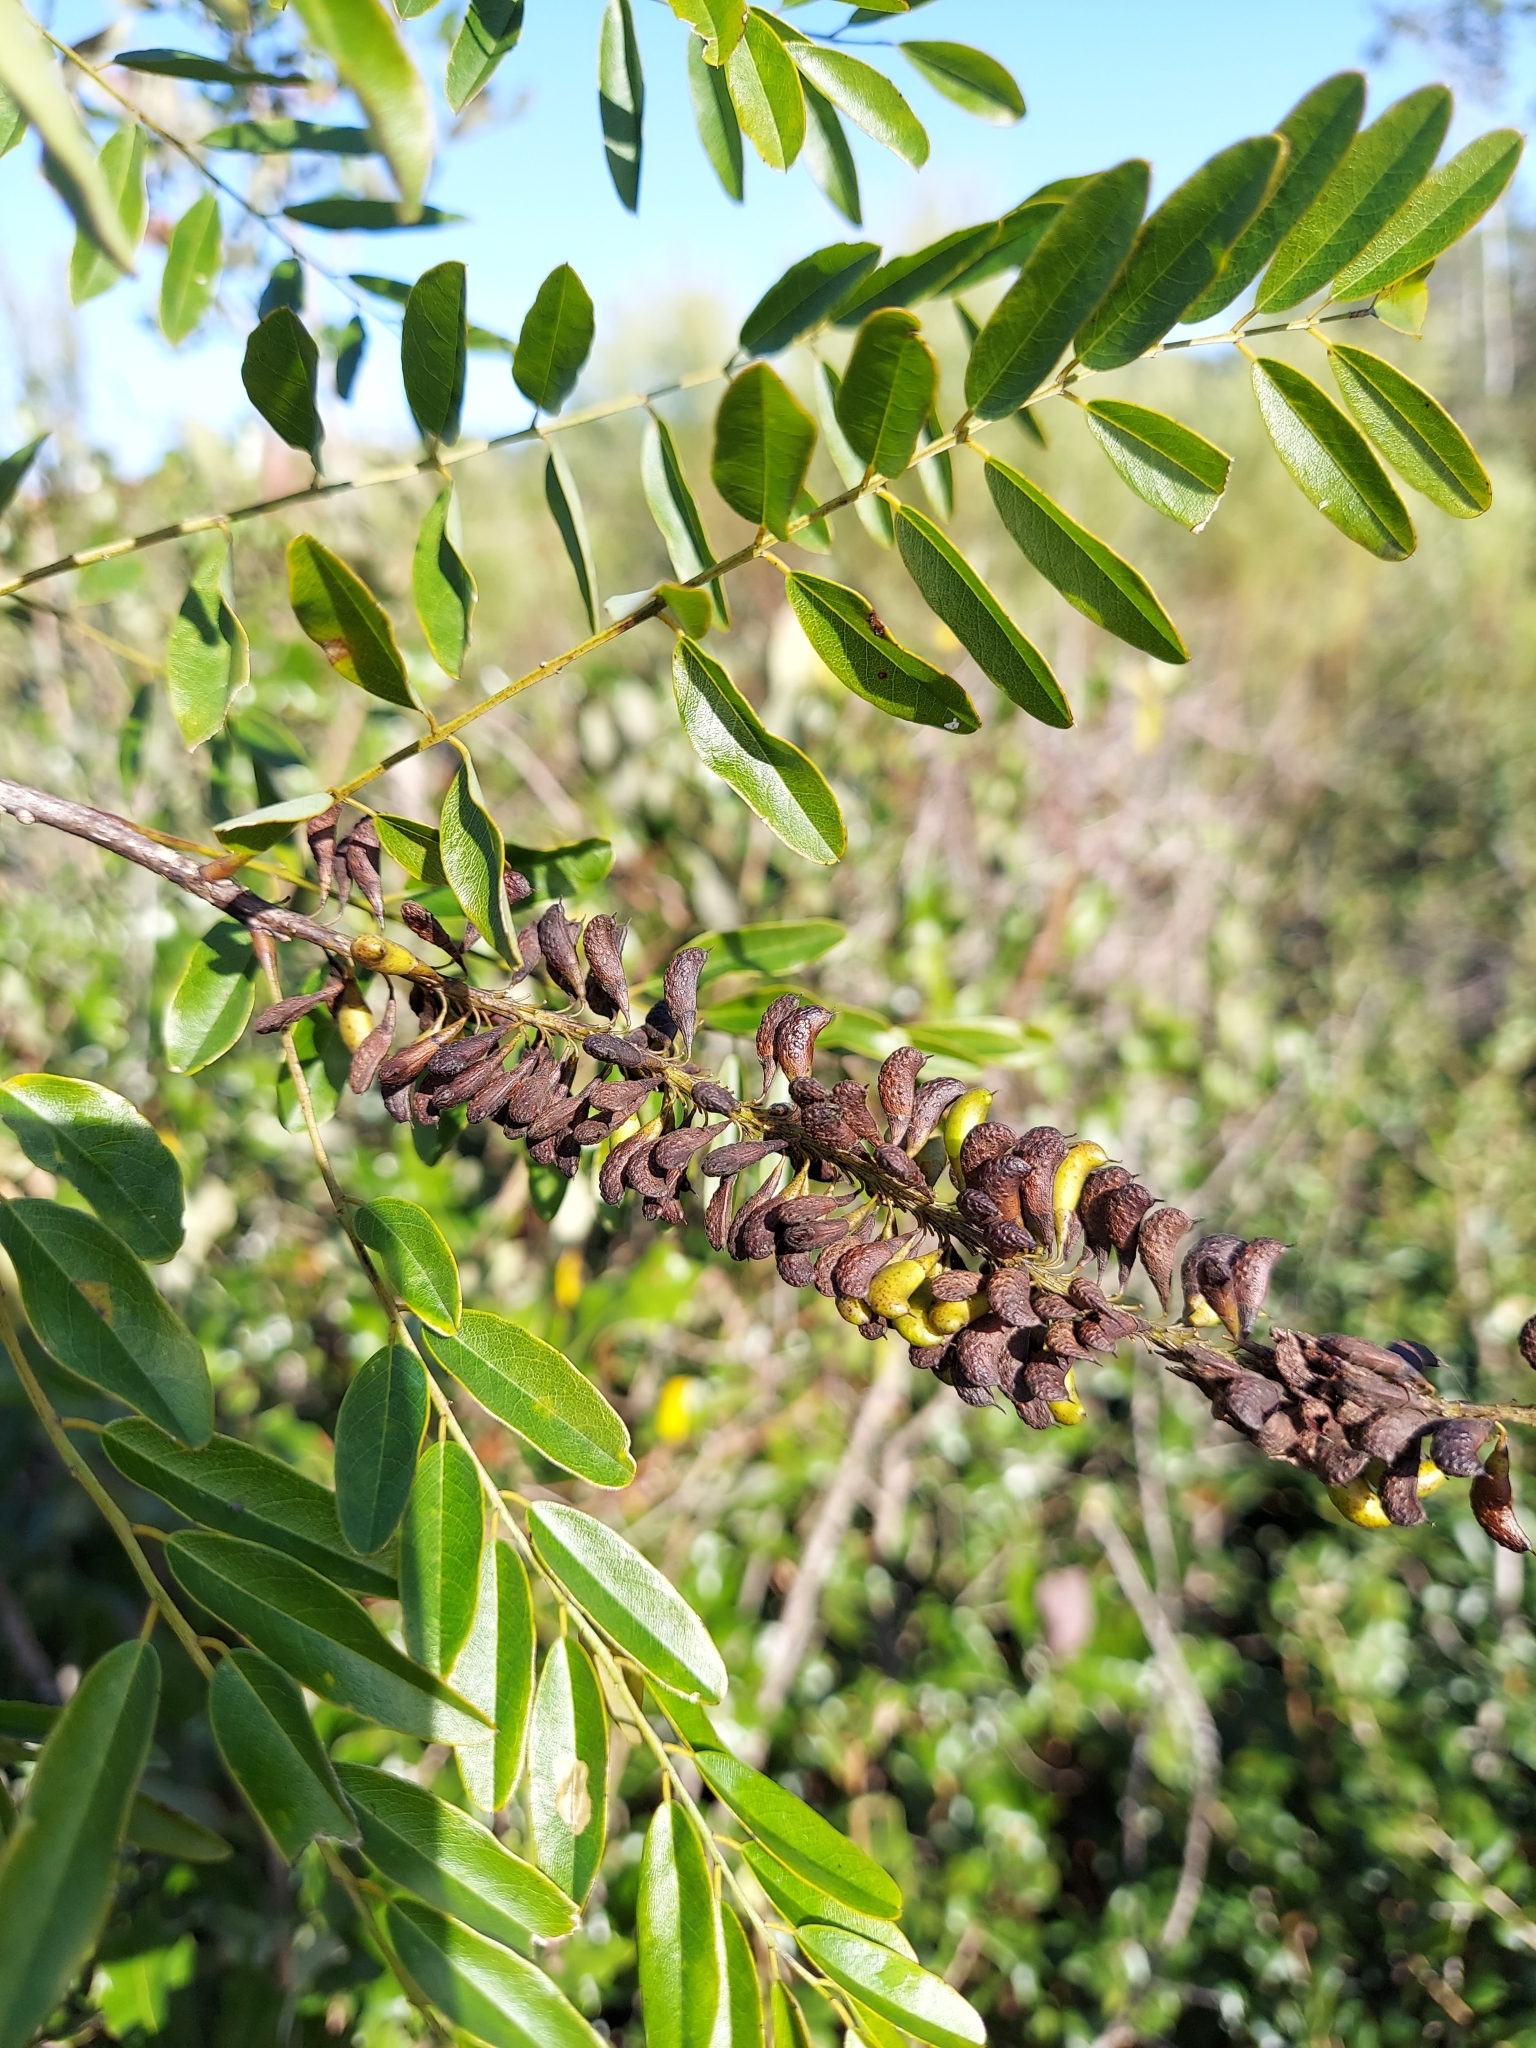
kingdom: Plantae
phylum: Tracheophyta
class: Magnoliopsida
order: Fabales
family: Fabaceae
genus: Amorpha
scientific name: Amorpha fruticosa
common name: False indigo
